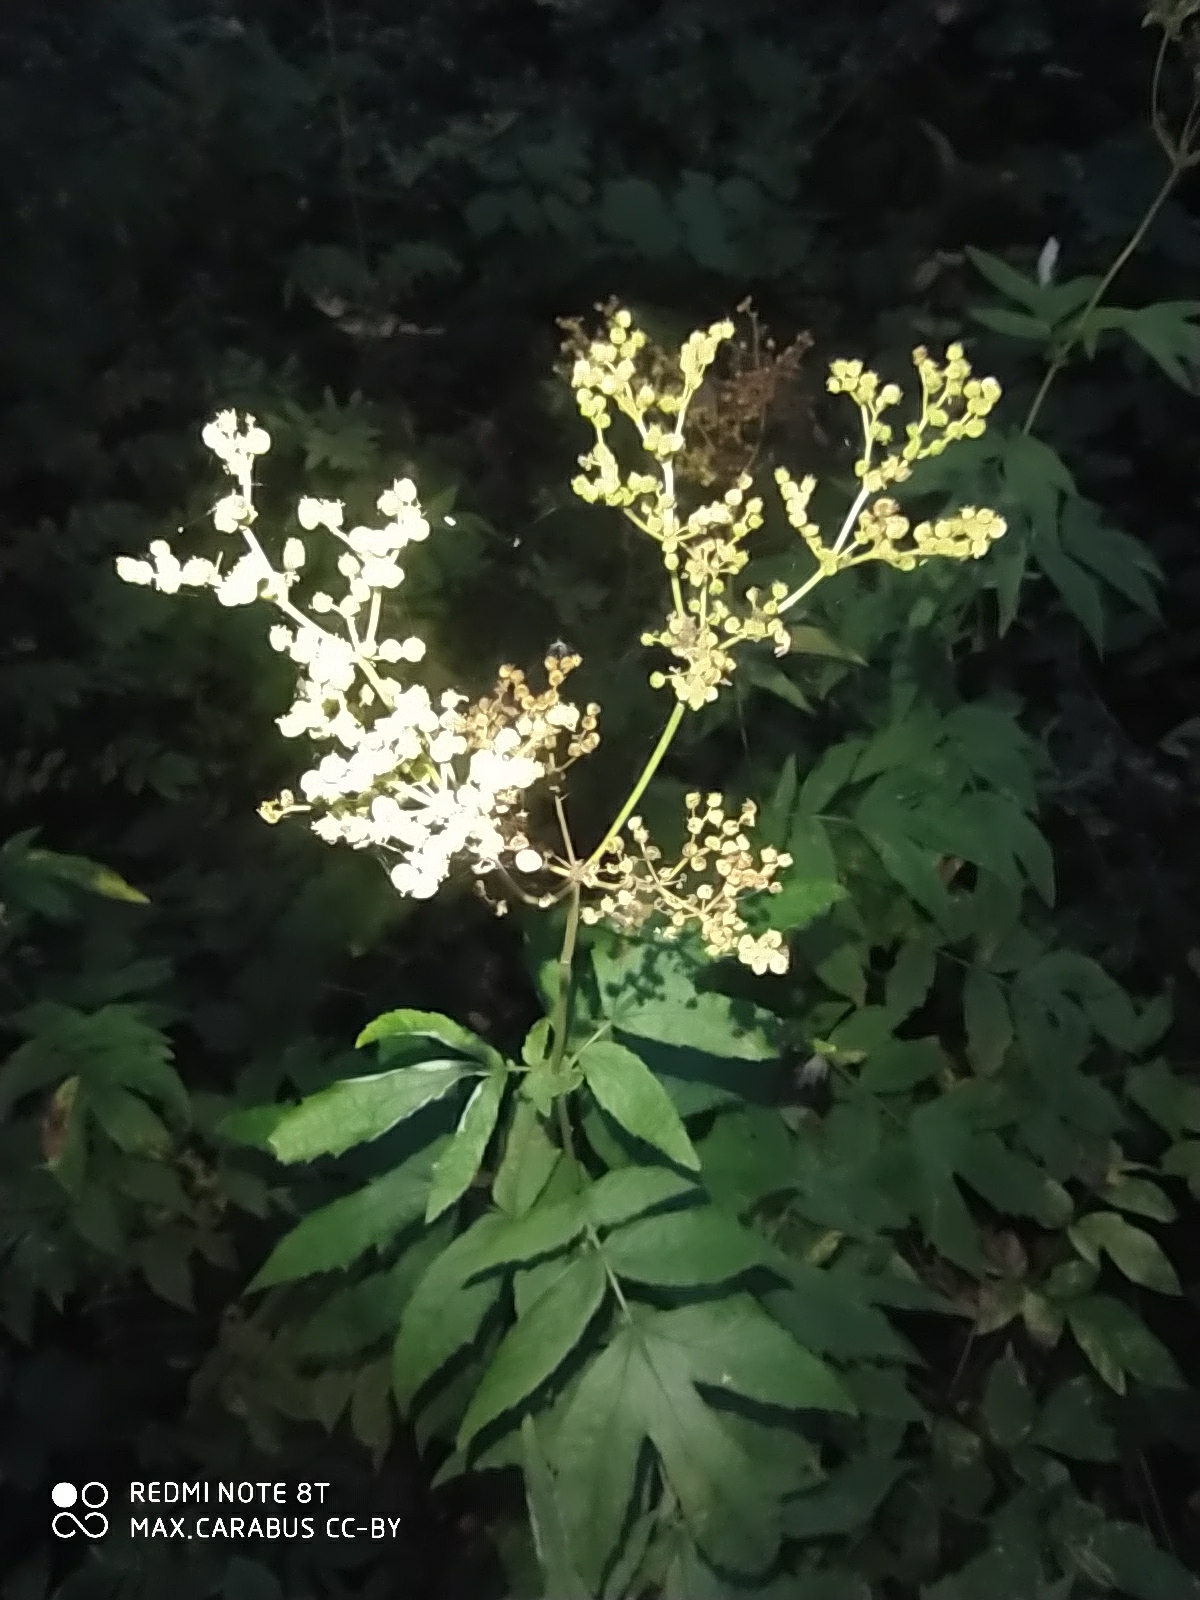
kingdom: Plantae
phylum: Tracheophyta
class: Magnoliopsida
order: Rosales
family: Rosaceae
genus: Filipendula
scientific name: Filipendula ulmaria
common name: Meadowsweet
